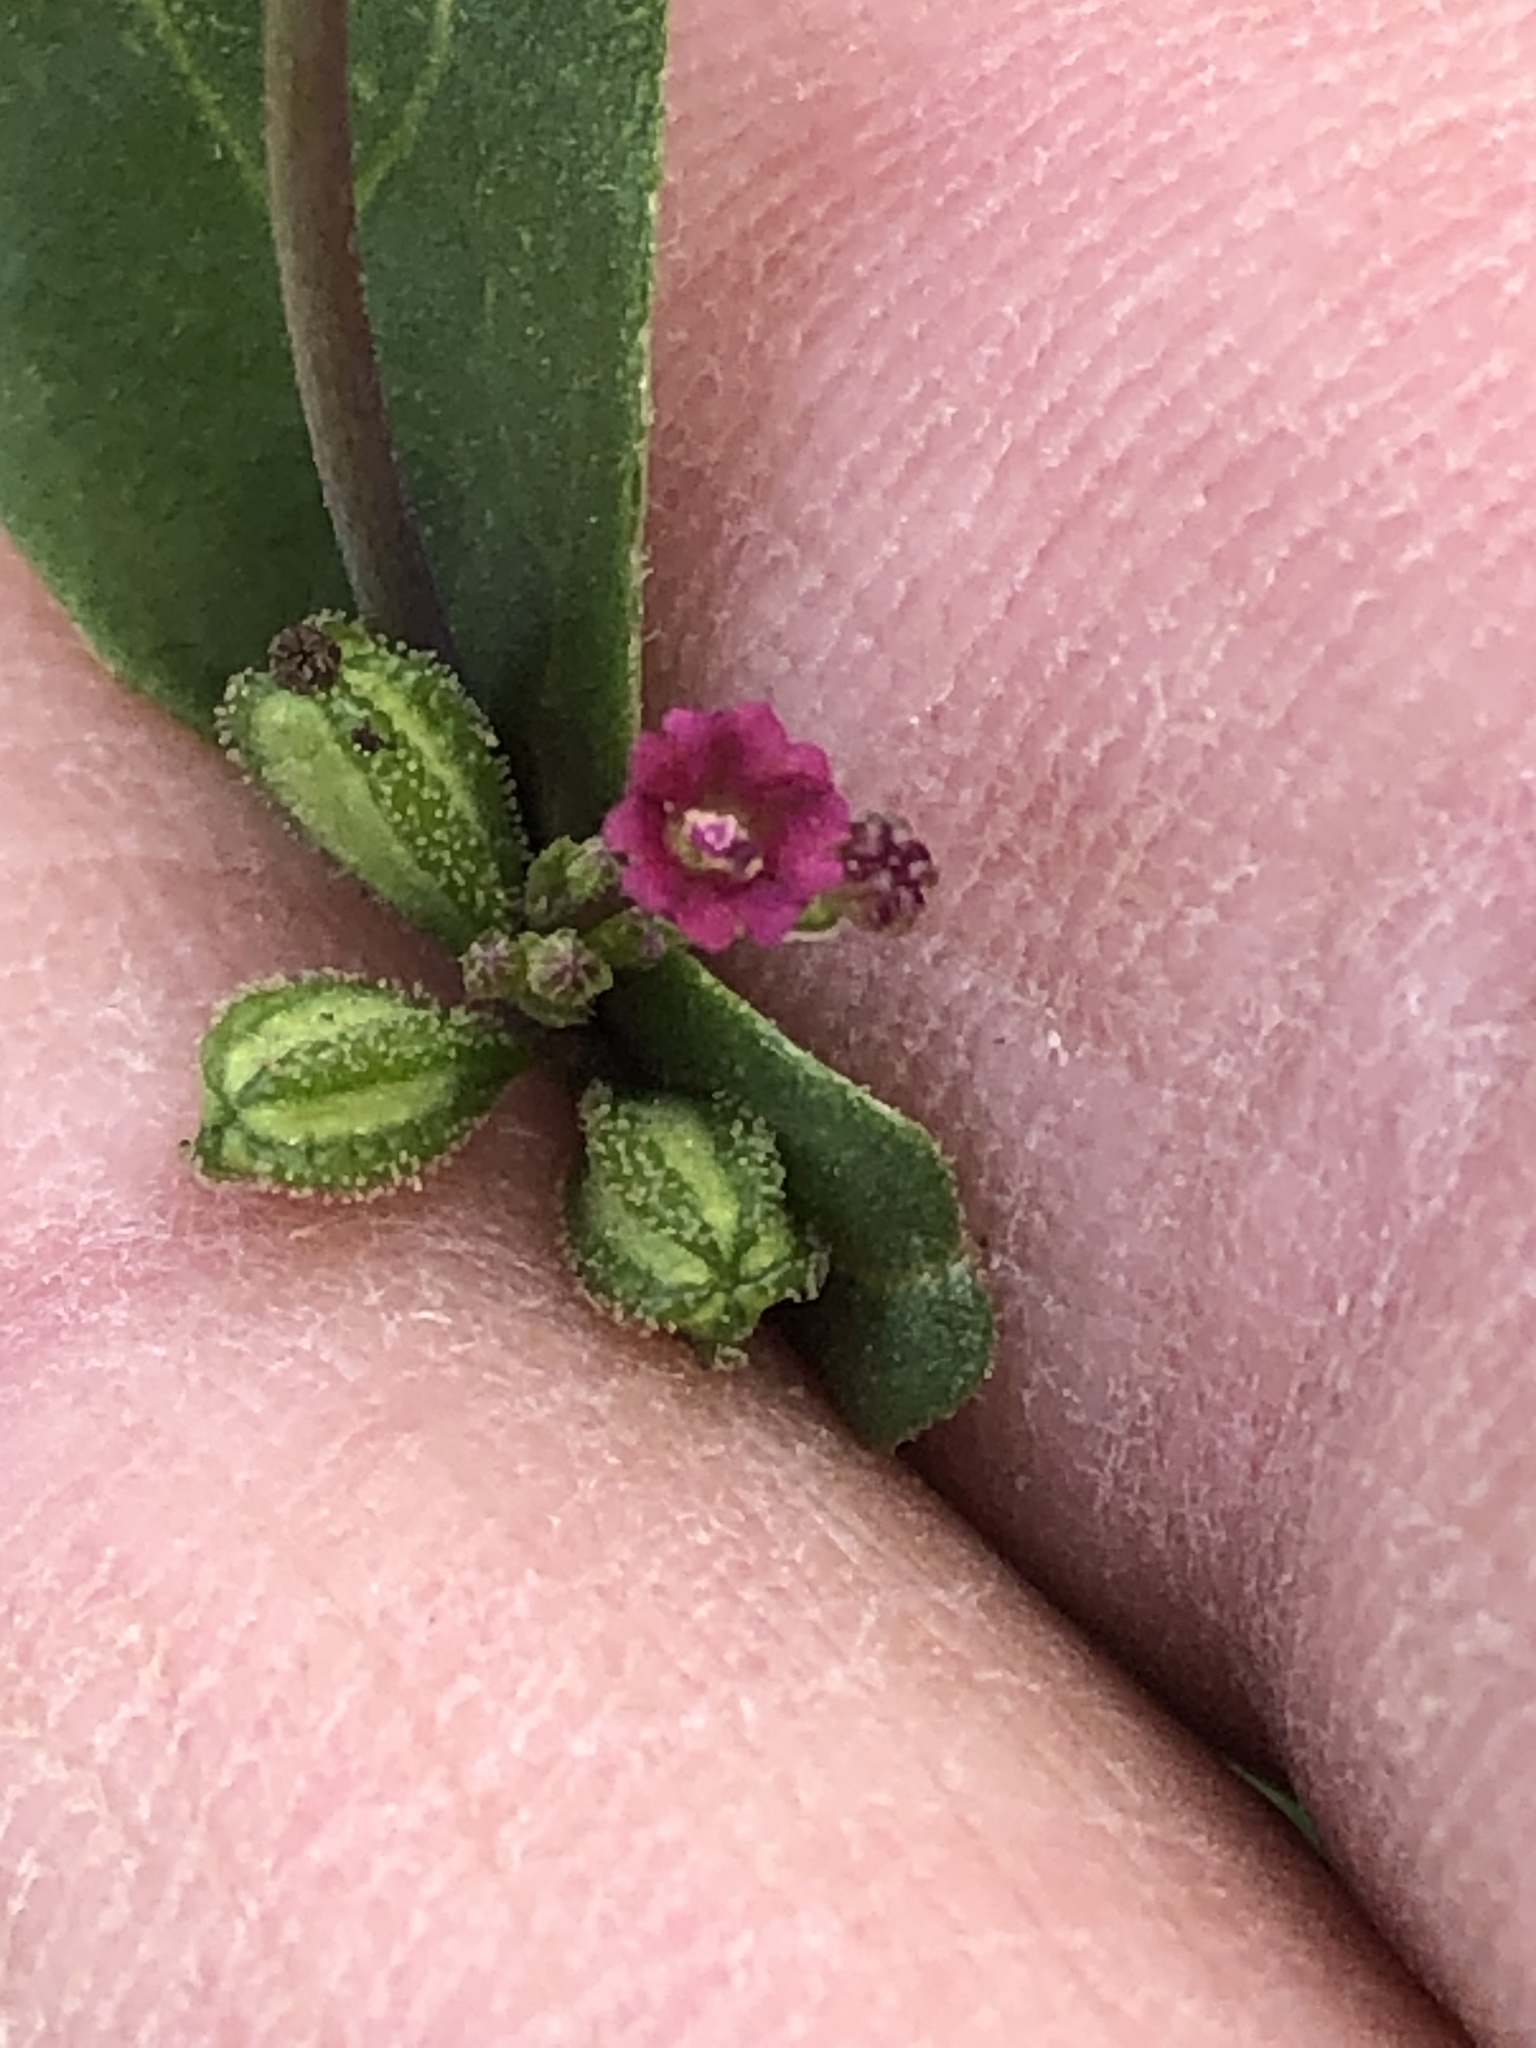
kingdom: Plantae
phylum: Tracheophyta
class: Magnoliopsida
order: Caryophyllales
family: Nyctaginaceae
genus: Boerhavia
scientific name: Boerhavia coccinea
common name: Scarlet spiderling
